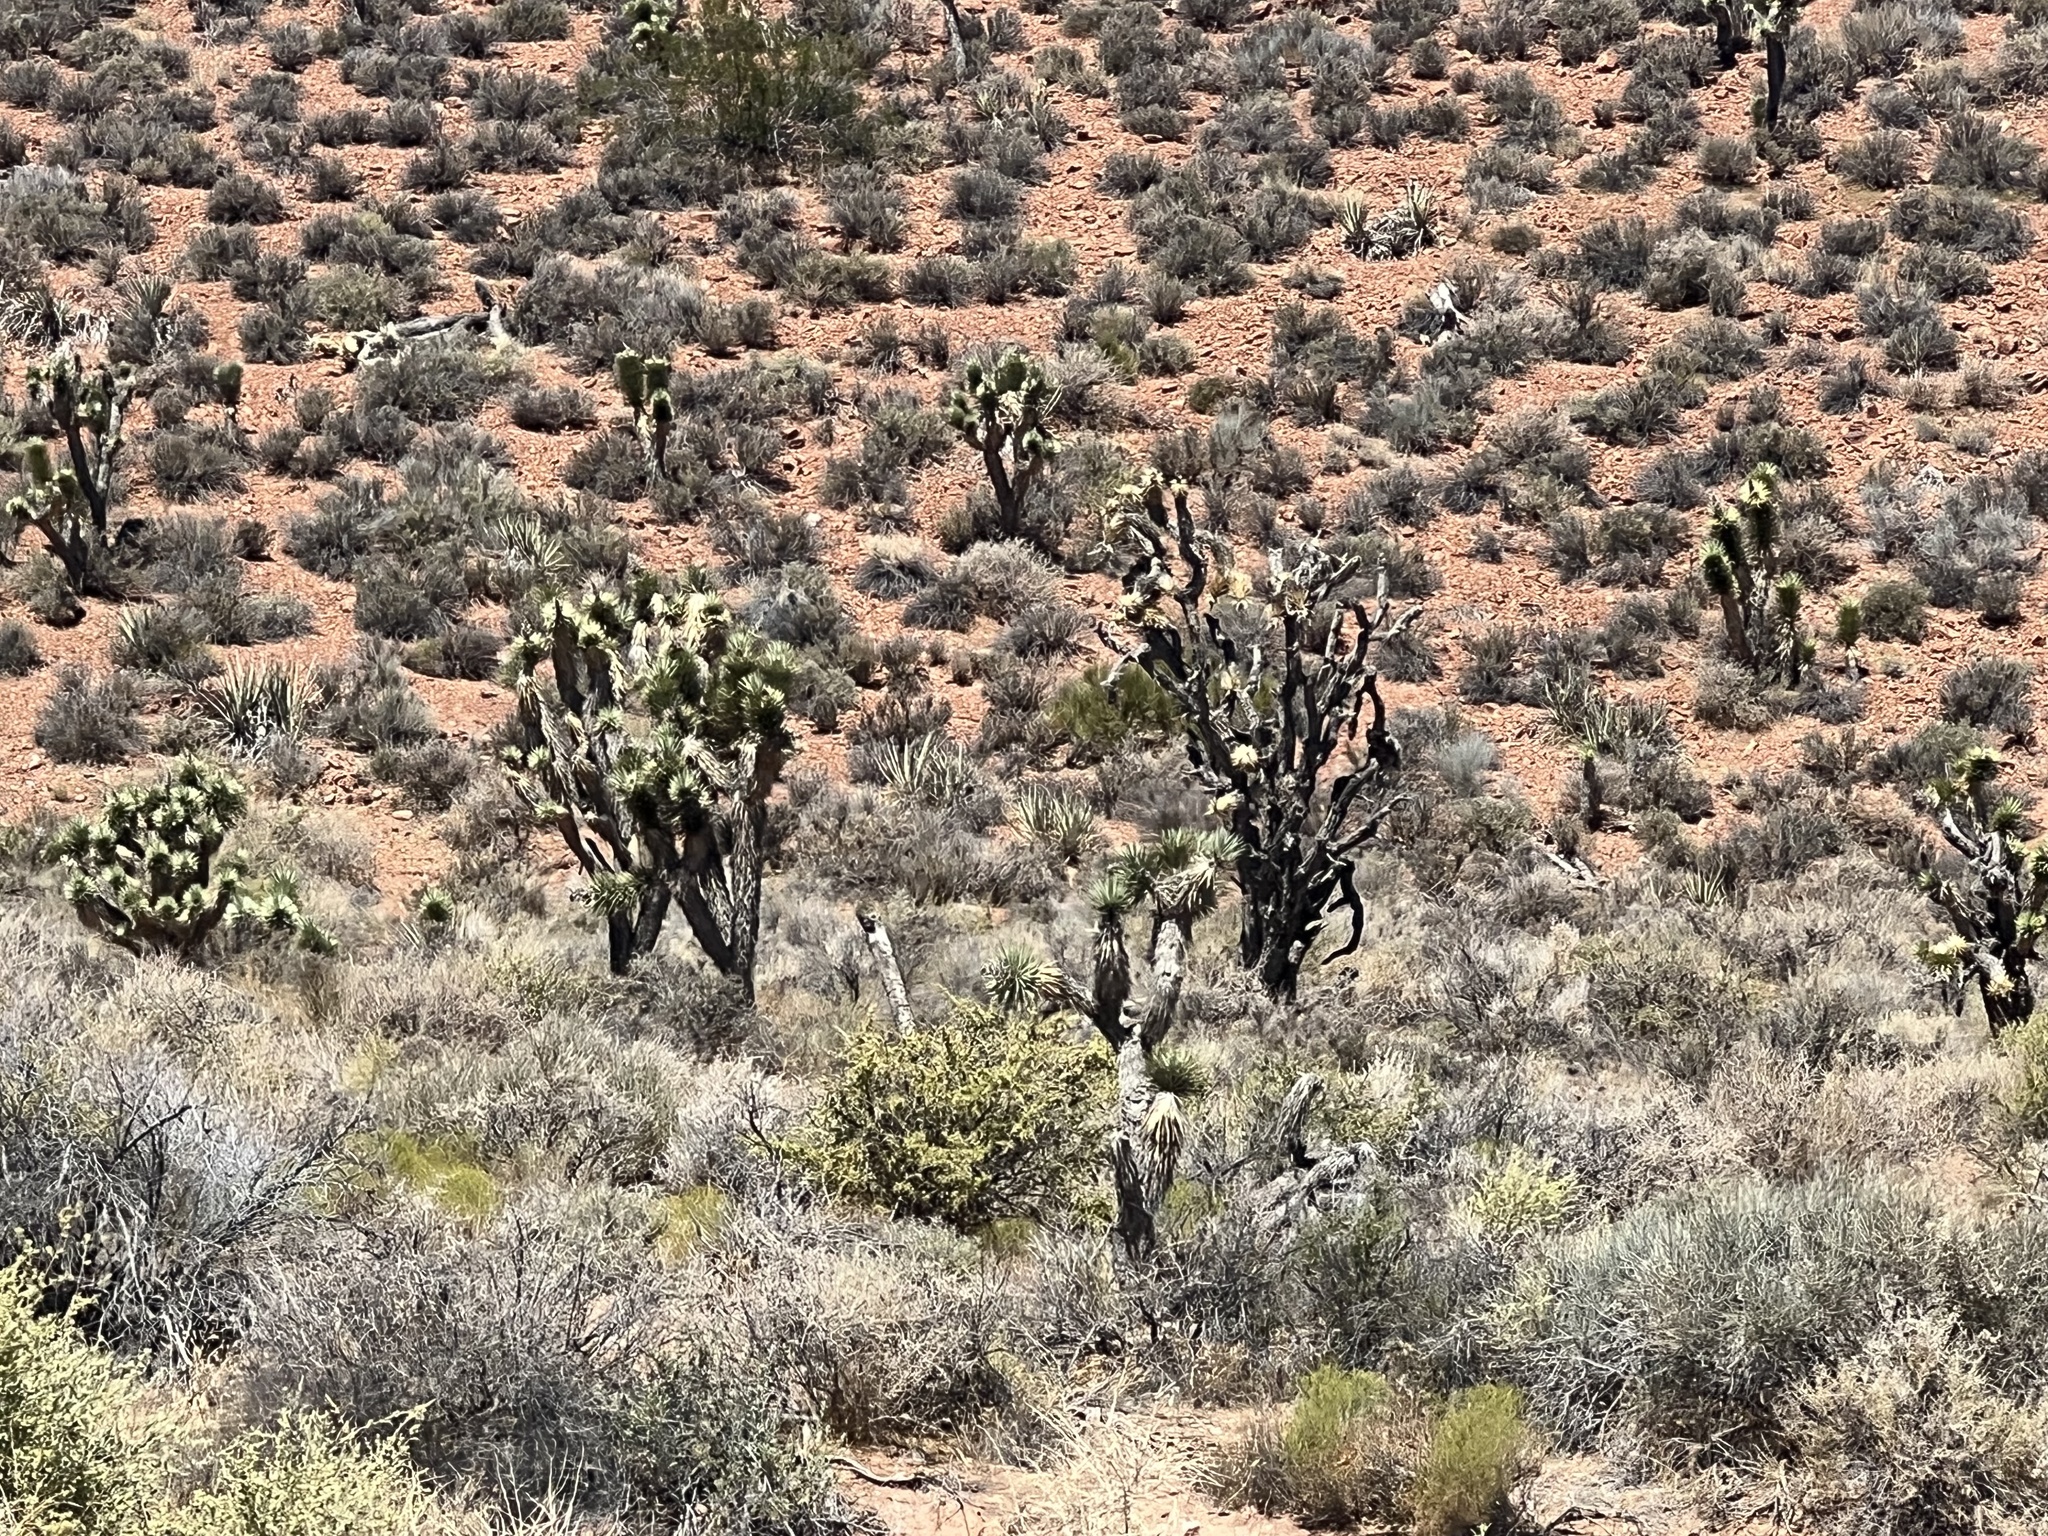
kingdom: Plantae
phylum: Tracheophyta
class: Liliopsida
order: Asparagales
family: Asparagaceae
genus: Yucca
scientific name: Yucca brevifolia
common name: Joshua tree
